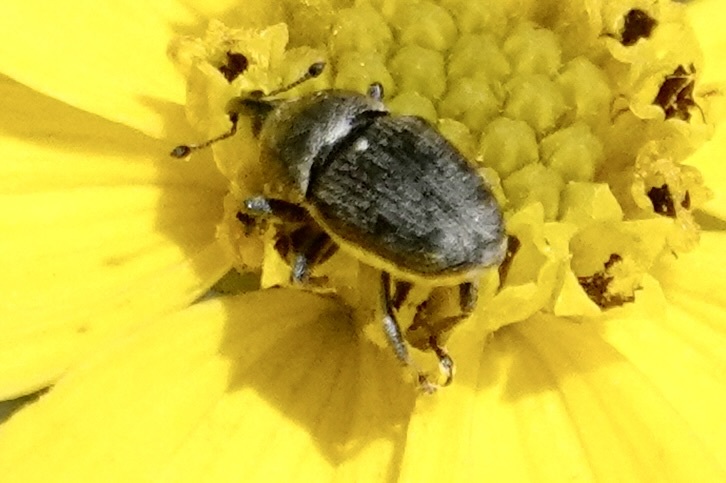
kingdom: Animalia
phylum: Arthropoda
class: Insecta
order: Coleoptera
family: Curculionidae
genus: Odontocorynus
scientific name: Odontocorynus salebrosus
